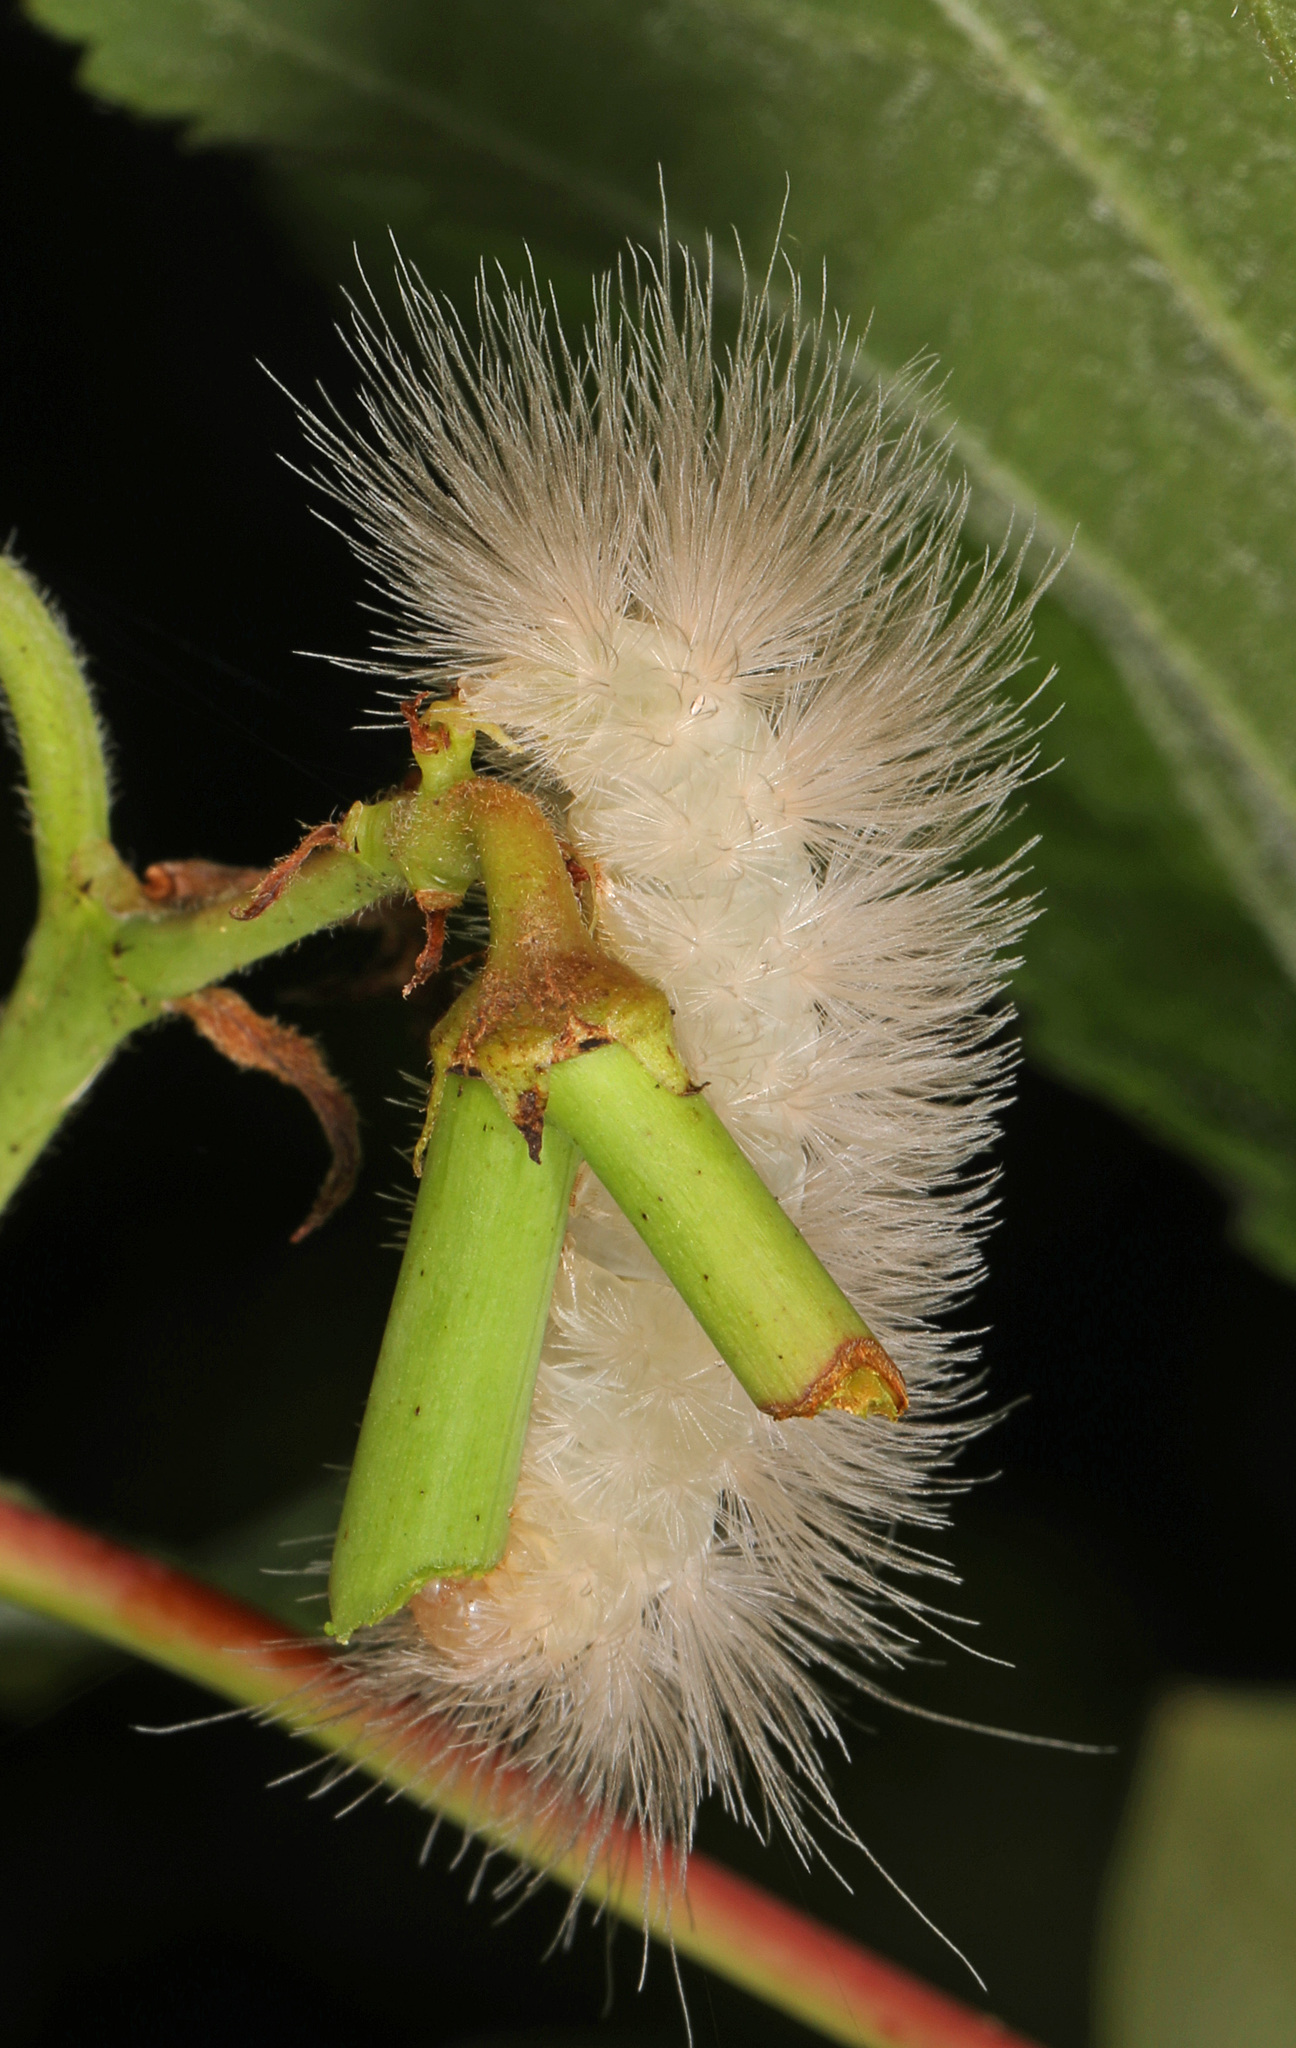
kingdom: Animalia
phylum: Arthropoda
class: Insecta
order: Lepidoptera
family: Erebidae
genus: Cycnia
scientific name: Cycnia tenera
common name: Delicate cycnia moth
